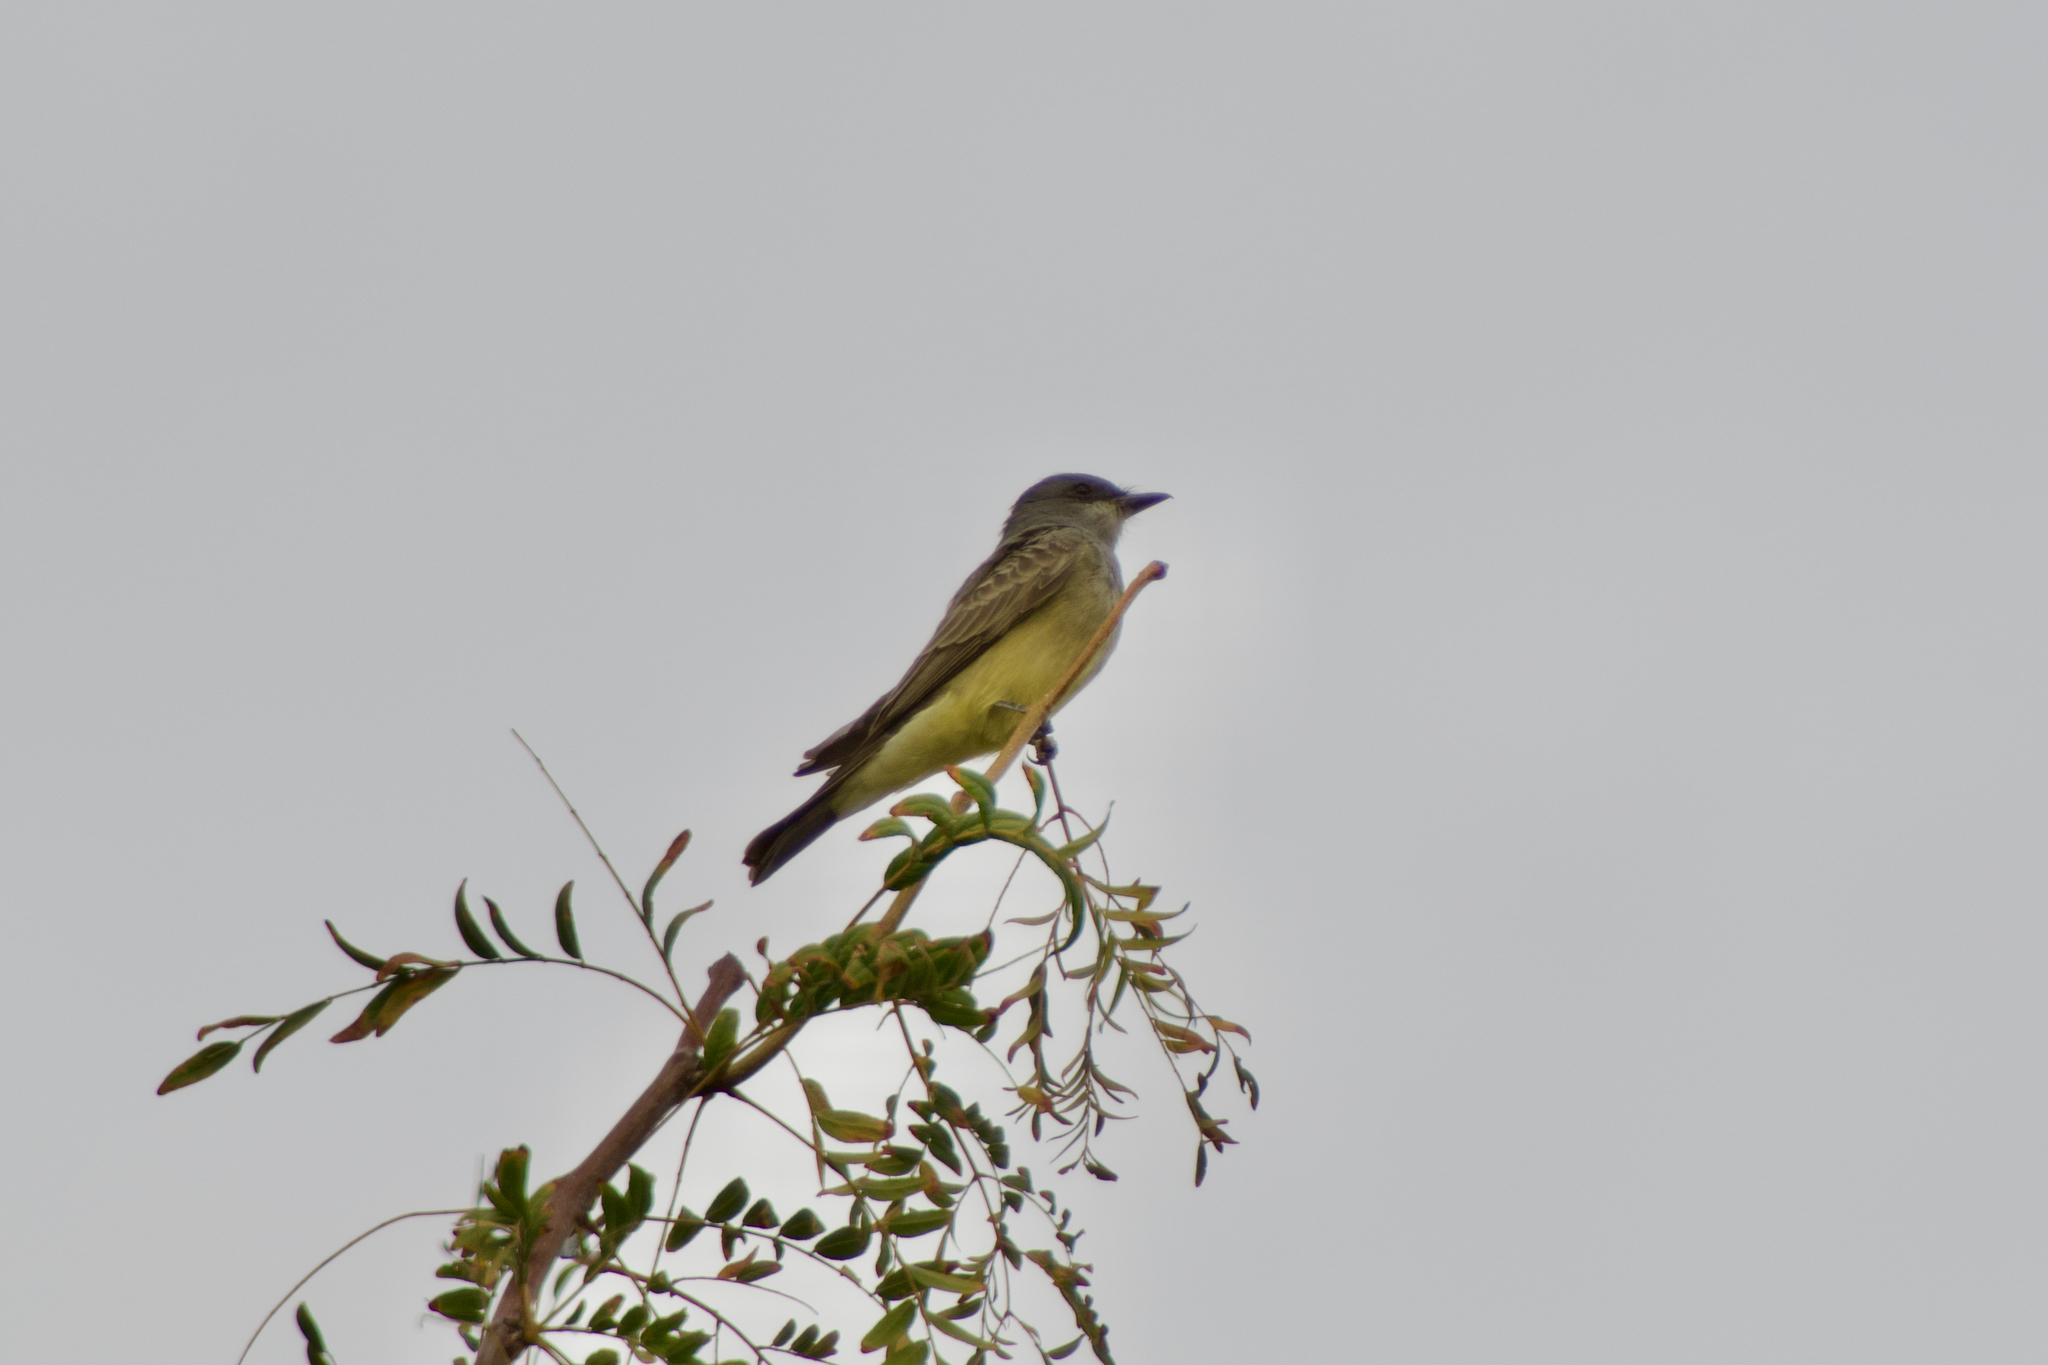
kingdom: Animalia
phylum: Chordata
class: Aves
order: Passeriformes
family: Tyrannidae
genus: Tyrannus
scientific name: Tyrannus vociferans
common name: Cassin's kingbird
